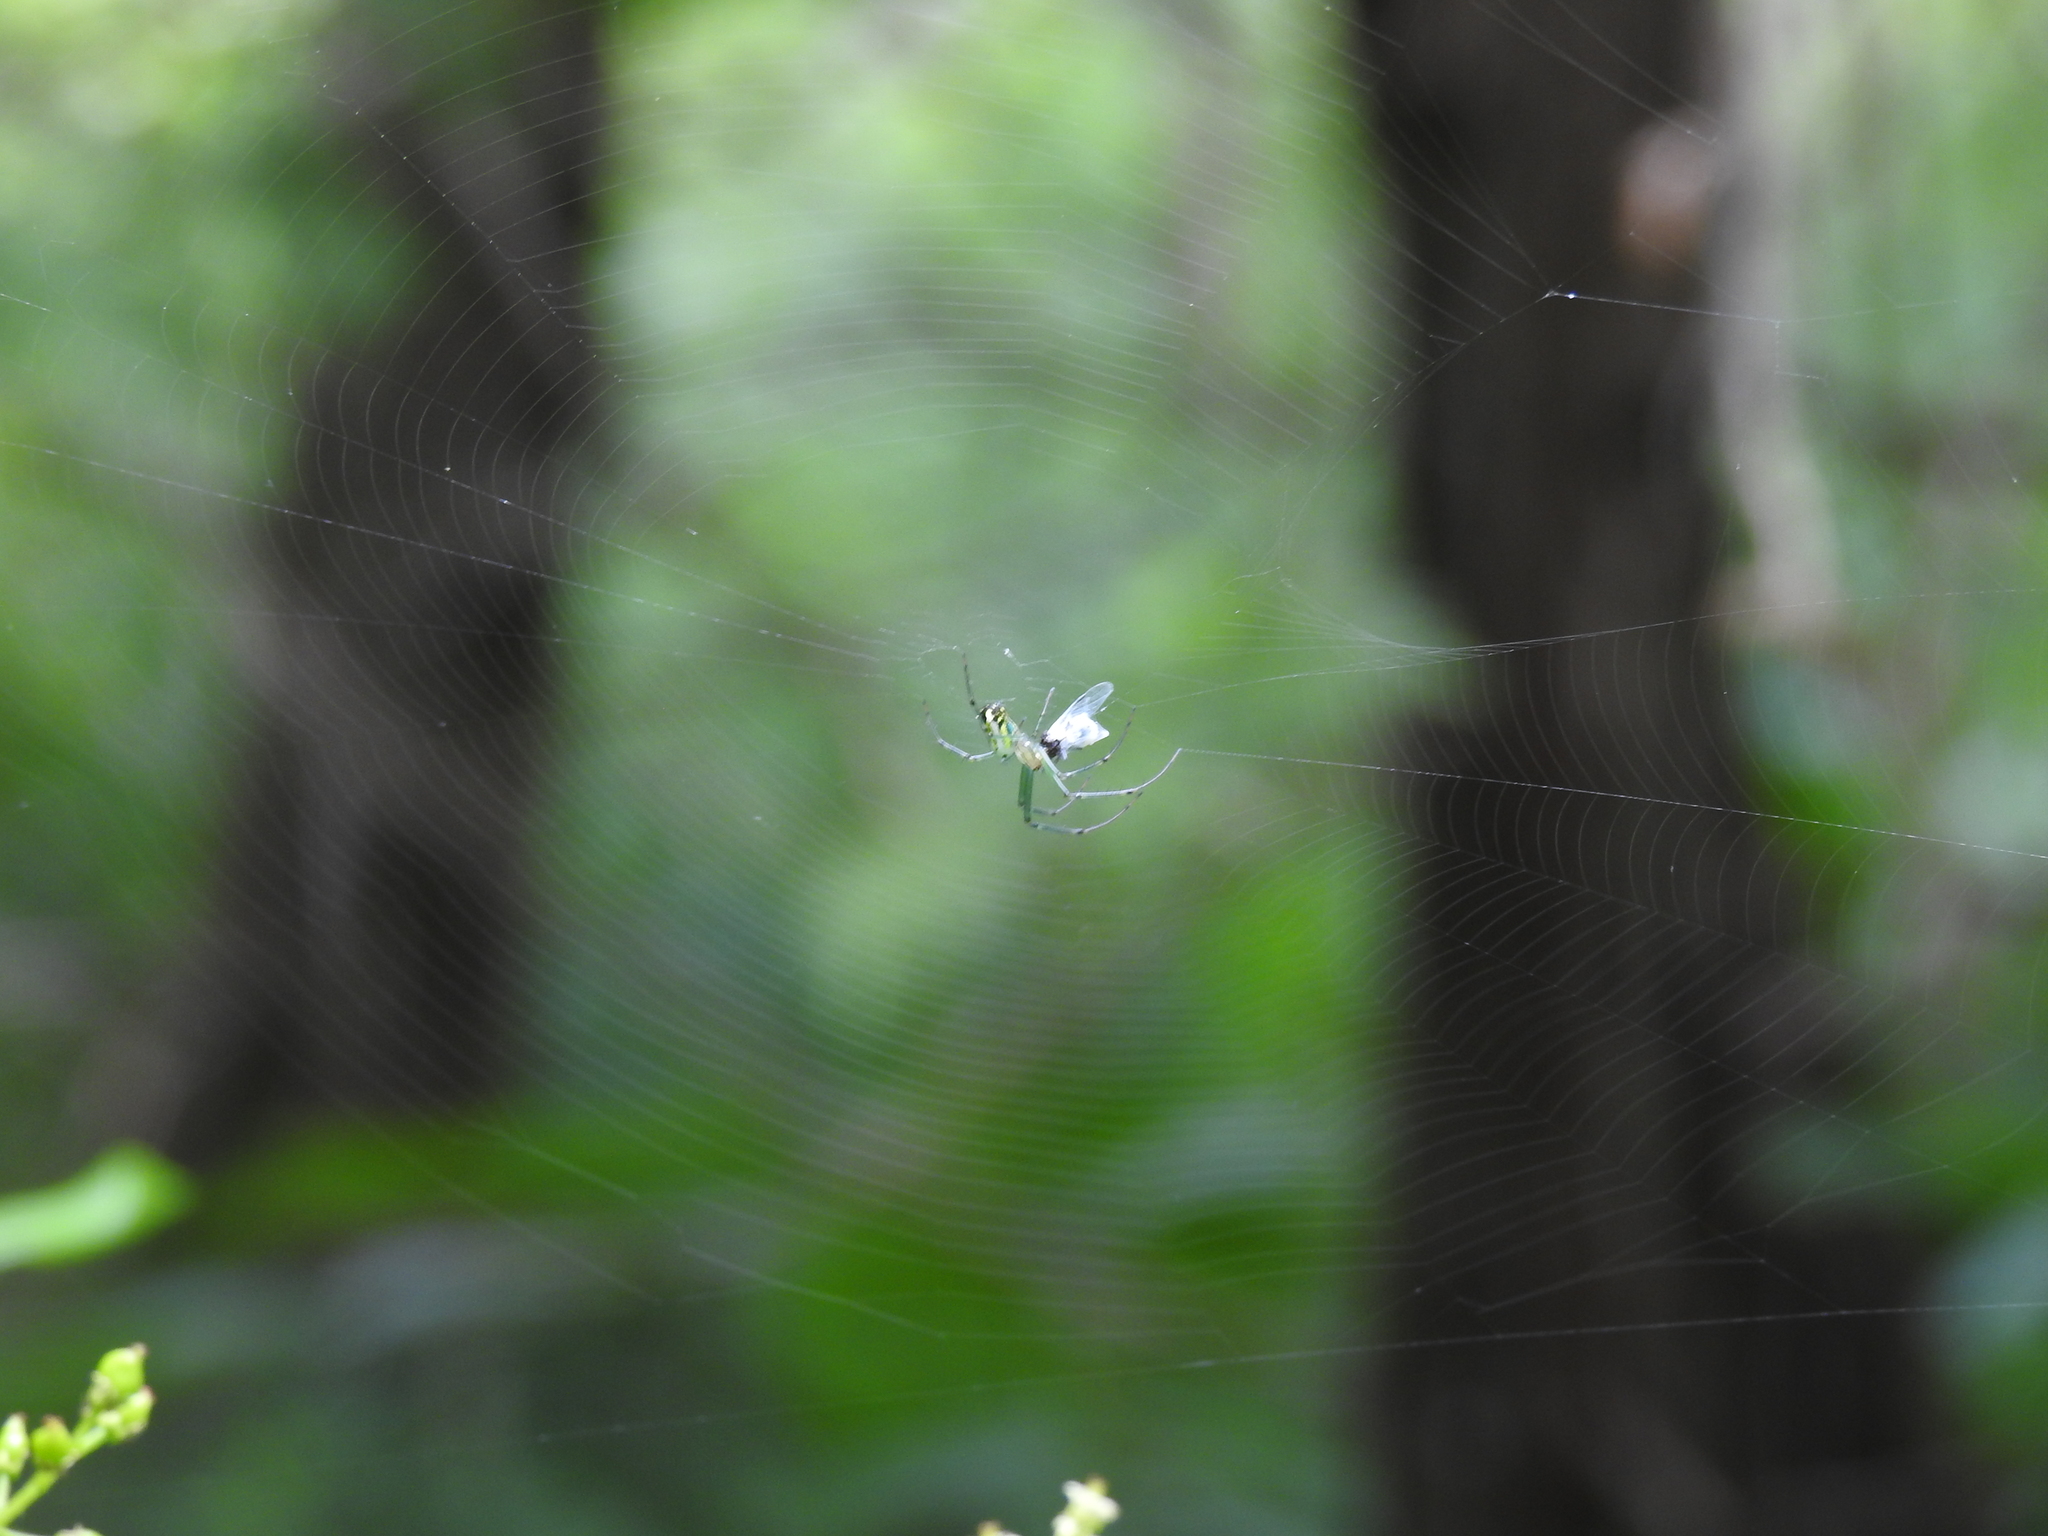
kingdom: Animalia
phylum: Arthropoda
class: Arachnida
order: Araneae
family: Tetragnathidae
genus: Leucauge
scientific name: Leucauge venusta
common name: Longjawed orb weavers
